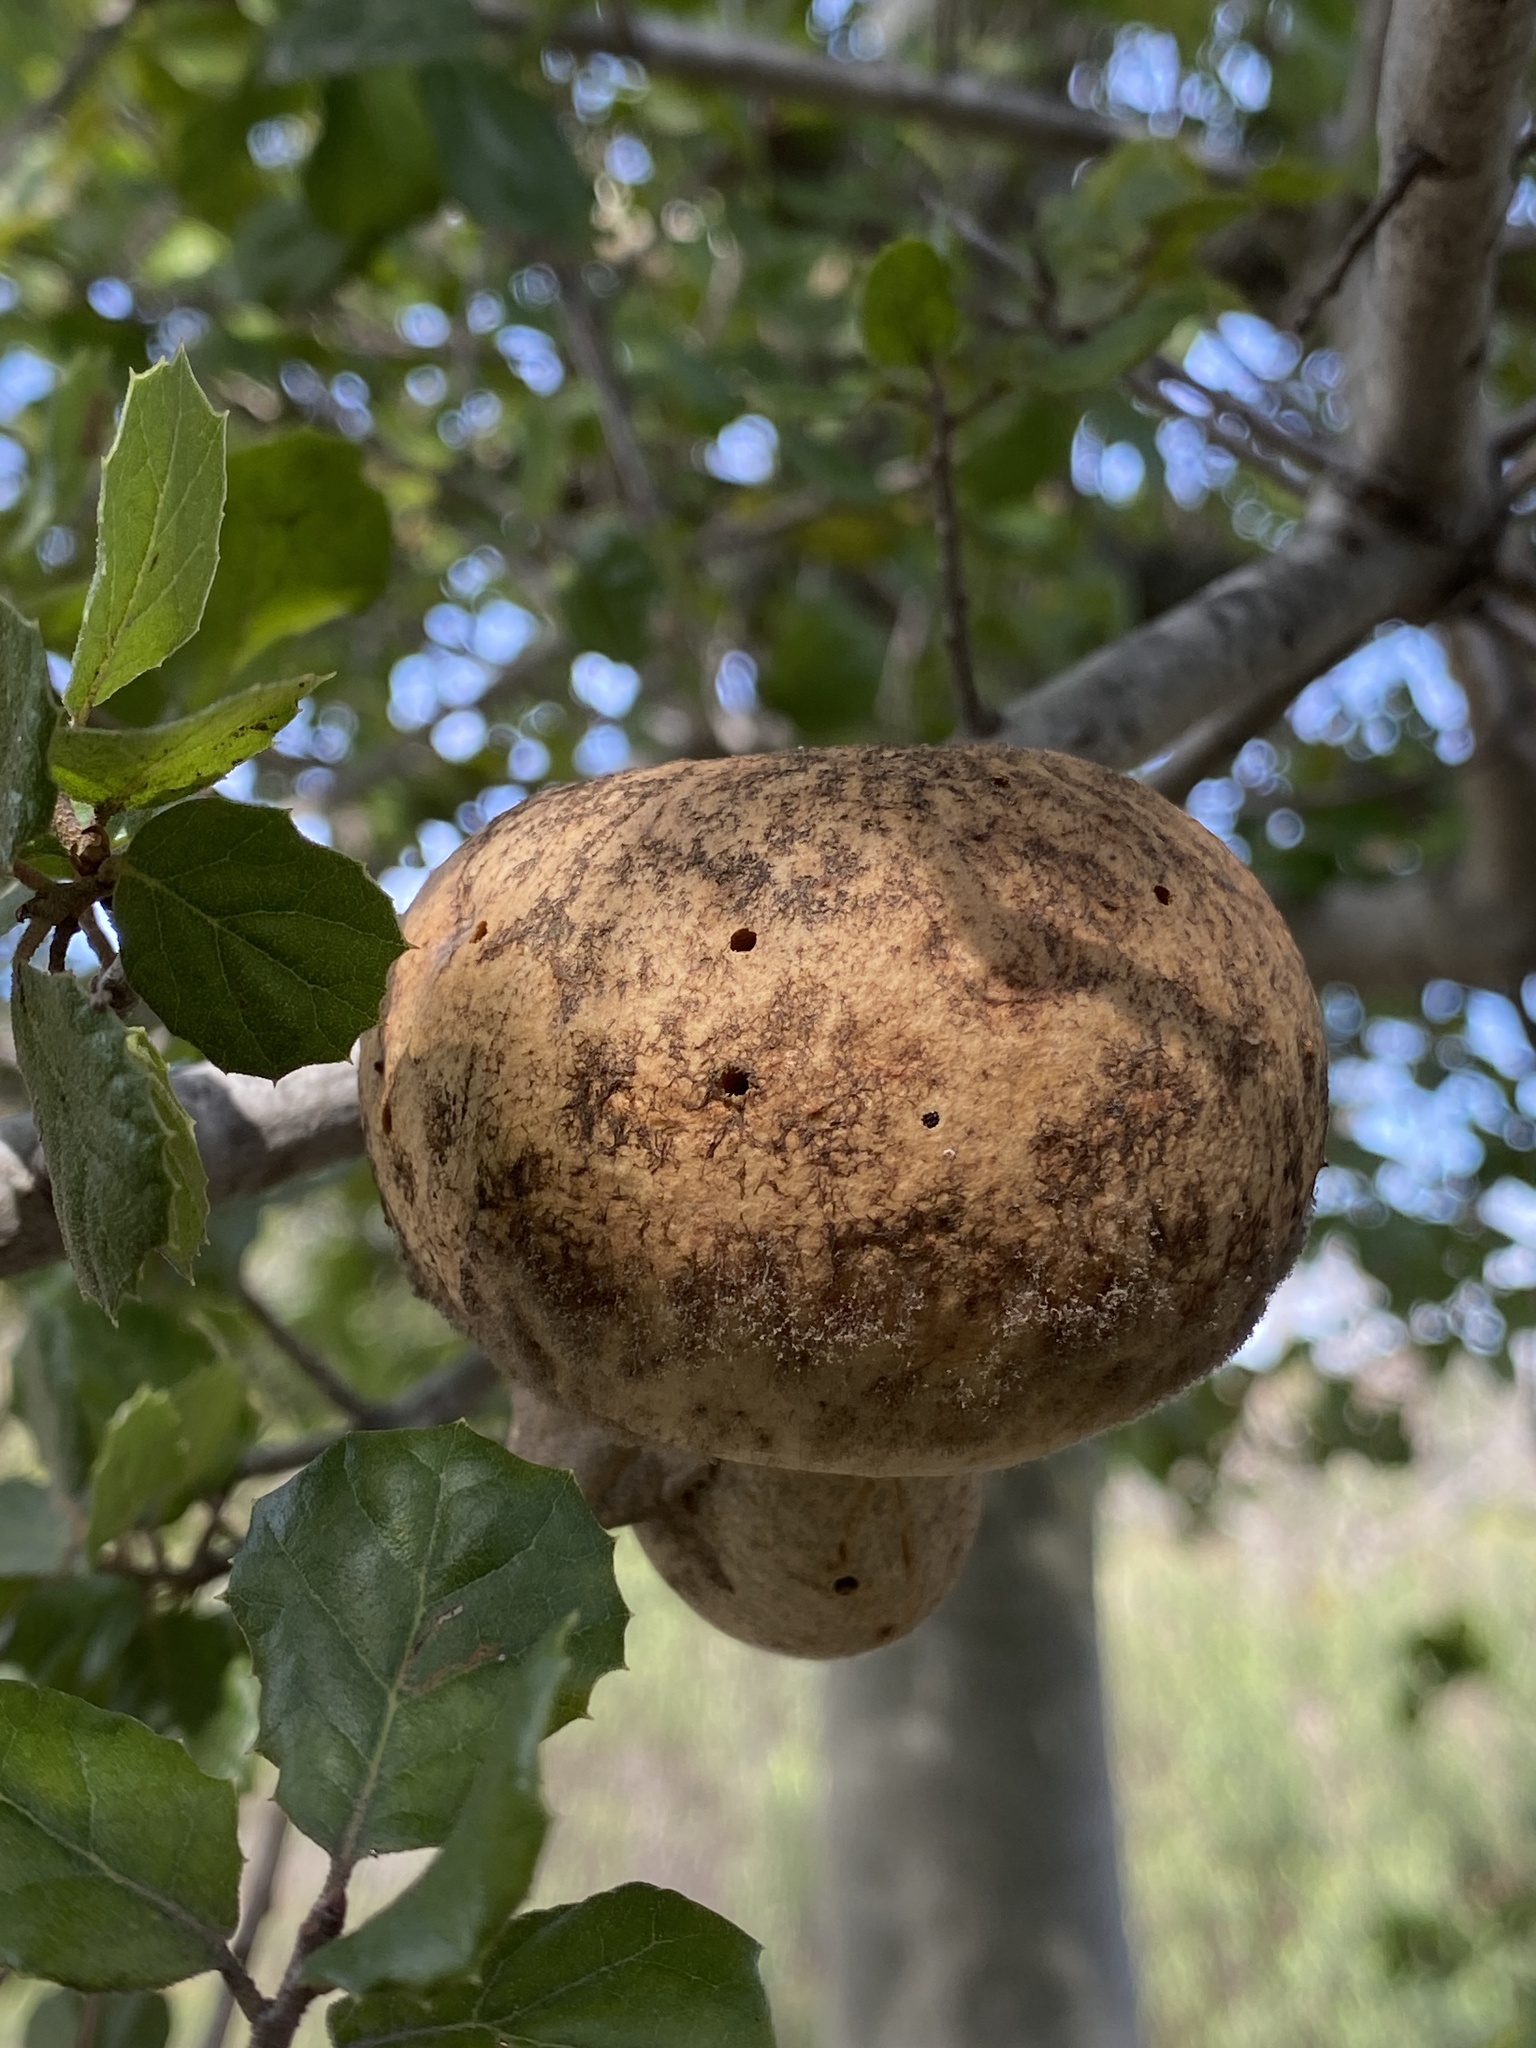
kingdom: Animalia
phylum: Arthropoda
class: Insecta
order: Hymenoptera
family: Cynipidae
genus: Amphibolips
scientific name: Amphibolips quercuspomiformis
